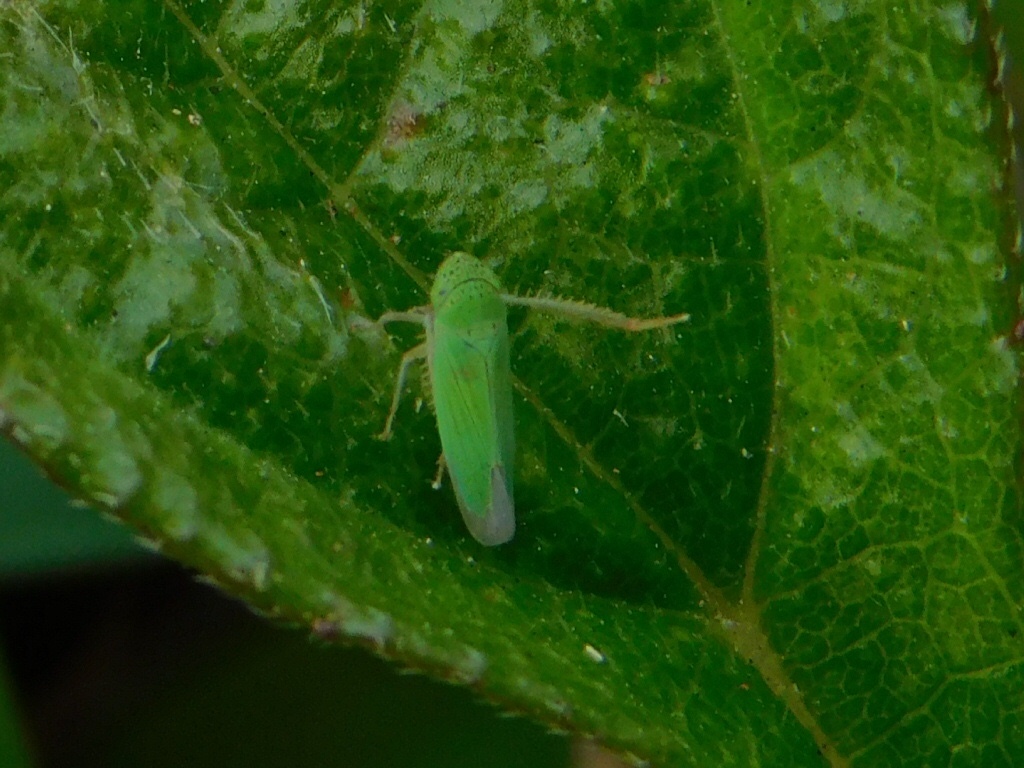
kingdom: Animalia
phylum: Arthropoda
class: Insecta
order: Hemiptera
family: Cicadellidae
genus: Hortensia
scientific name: Hortensia similis
